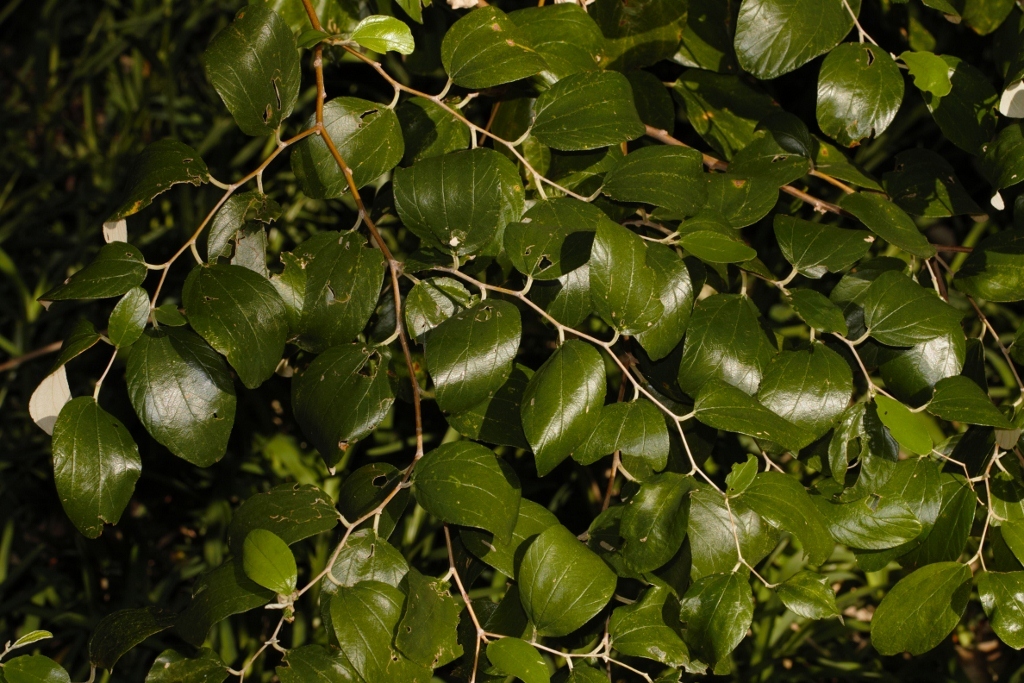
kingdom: Plantae
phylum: Tracheophyta
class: Magnoliopsida
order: Rosales
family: Rhamnaceae
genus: Ziziphus
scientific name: Ziziphus mauritiana
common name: Indian jujube
